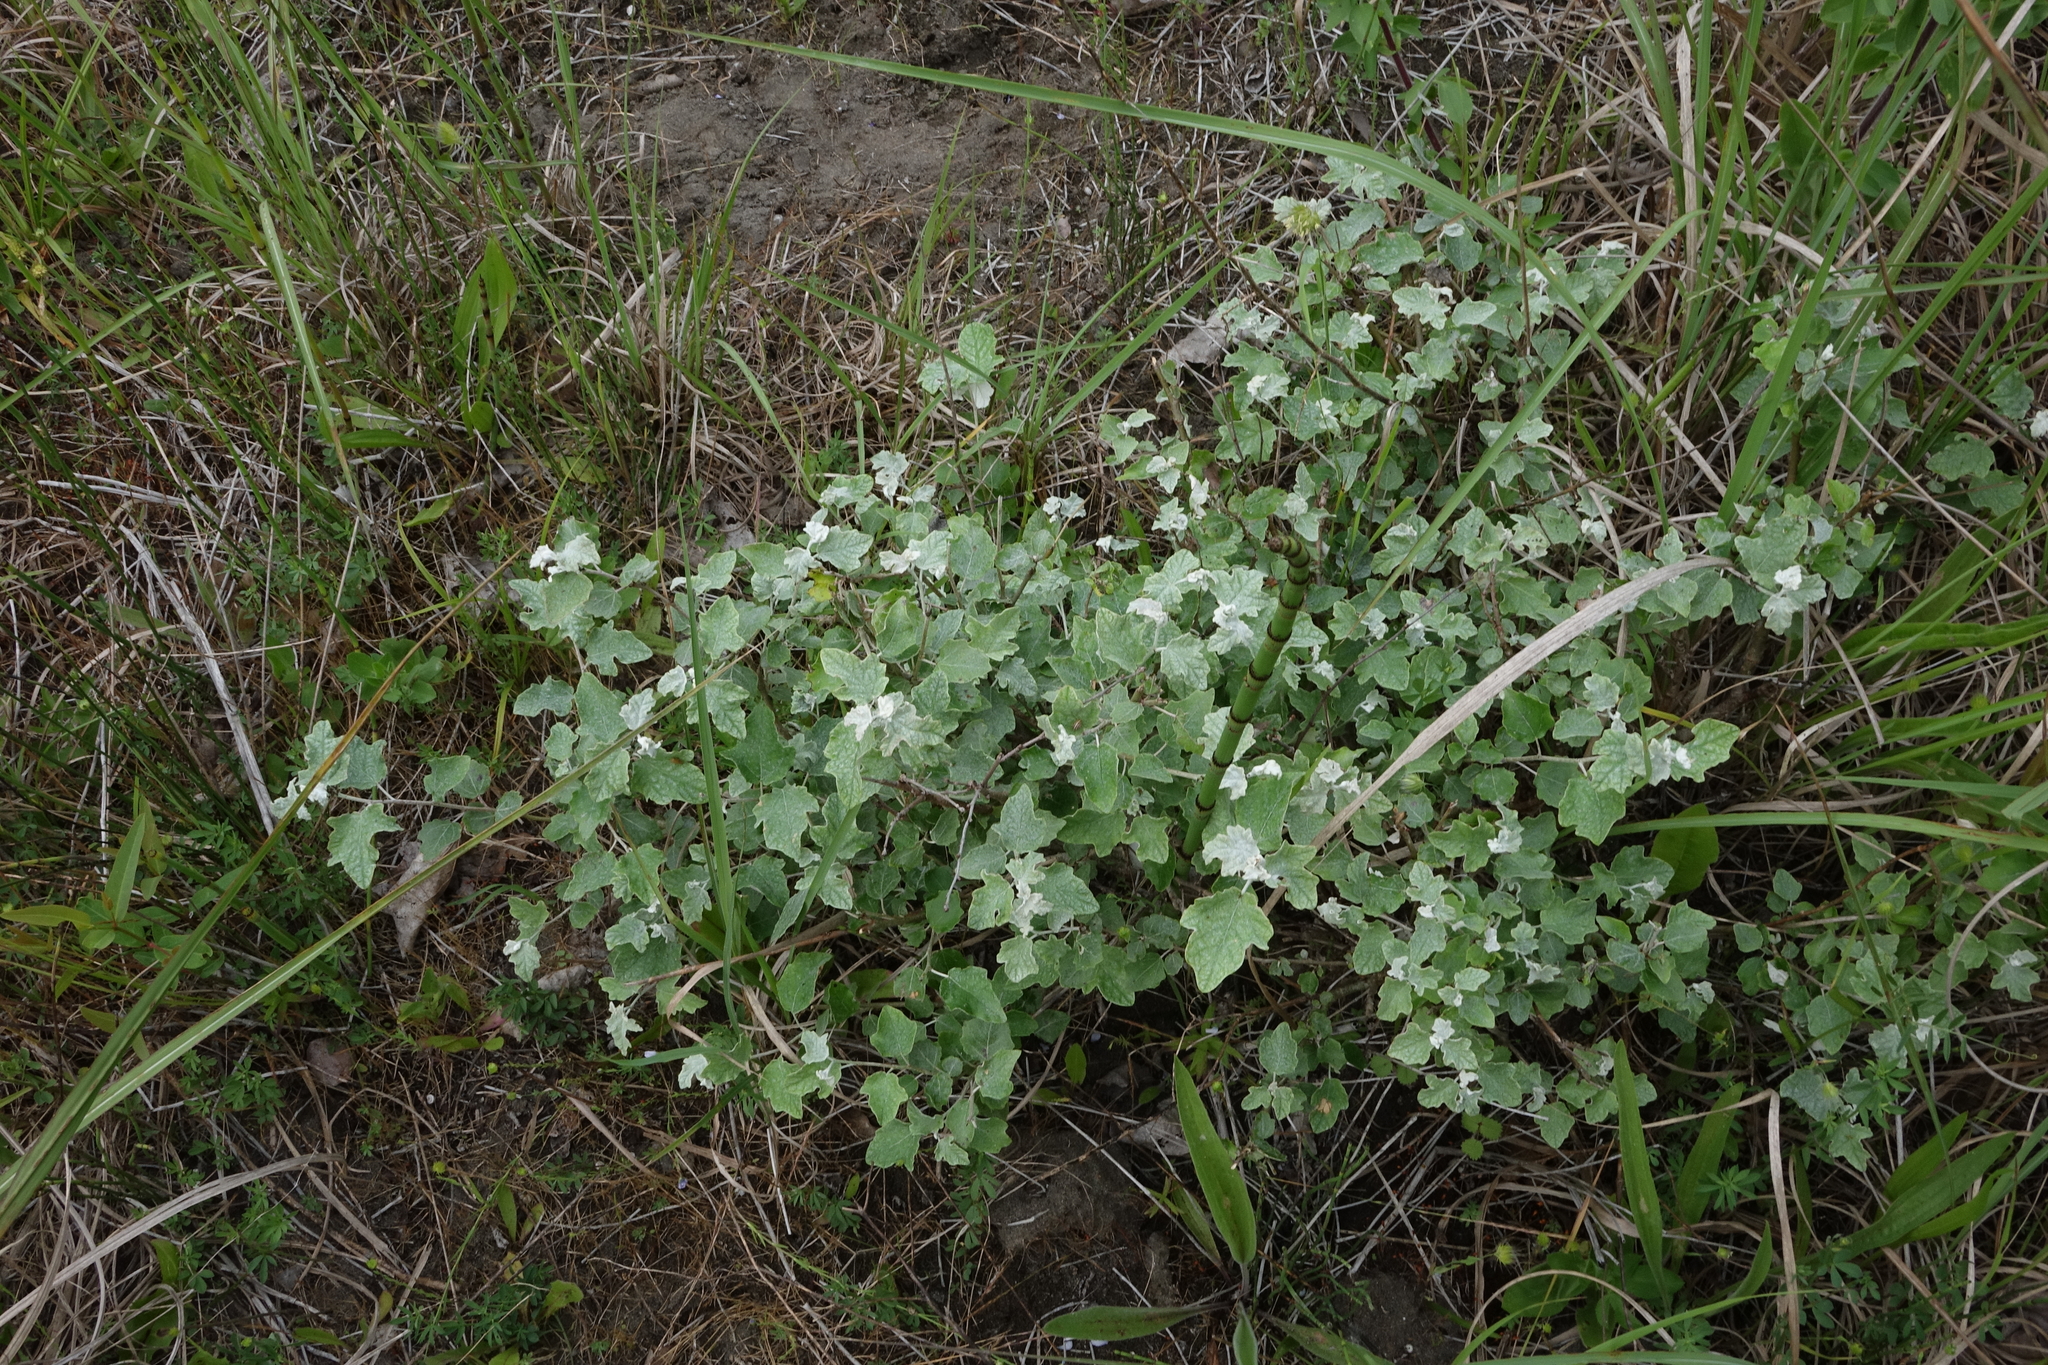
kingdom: Plantae
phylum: Tracheophyta
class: Magnoliopsida
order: Malpighiales
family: Salicaceae
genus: Populus
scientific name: Populus alba
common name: White poplar
